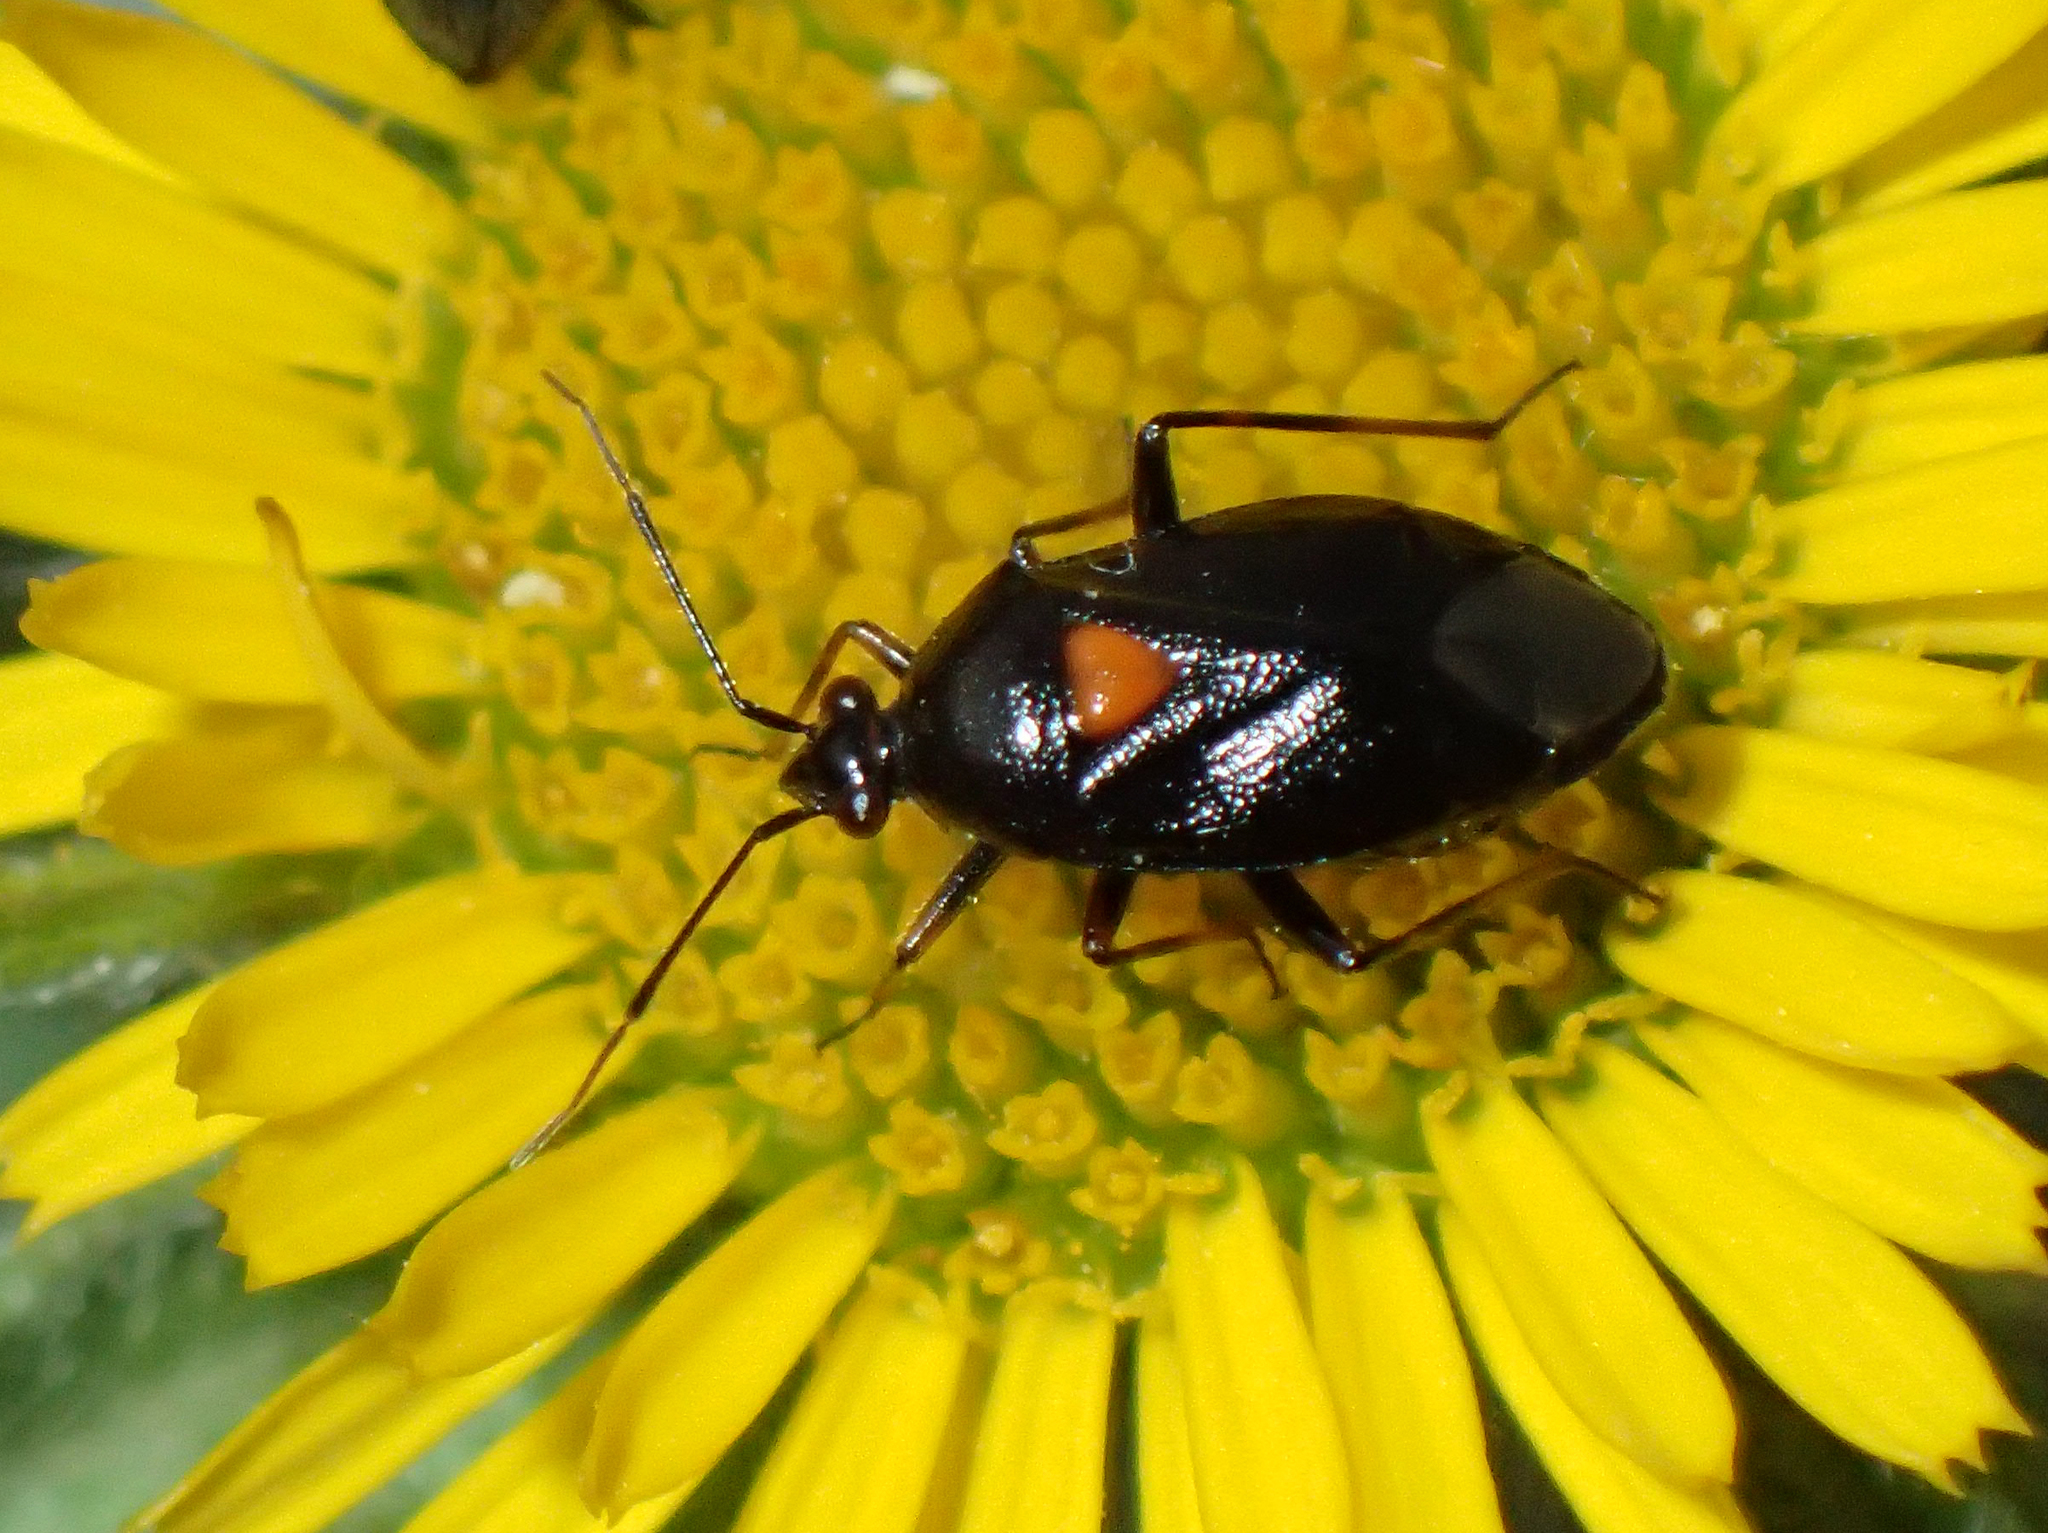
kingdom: Animalia
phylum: Arthropoda
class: Insecta
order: Hemiptera
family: Miridae
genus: Deraeocoris
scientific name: Deraeocoris ribauti
